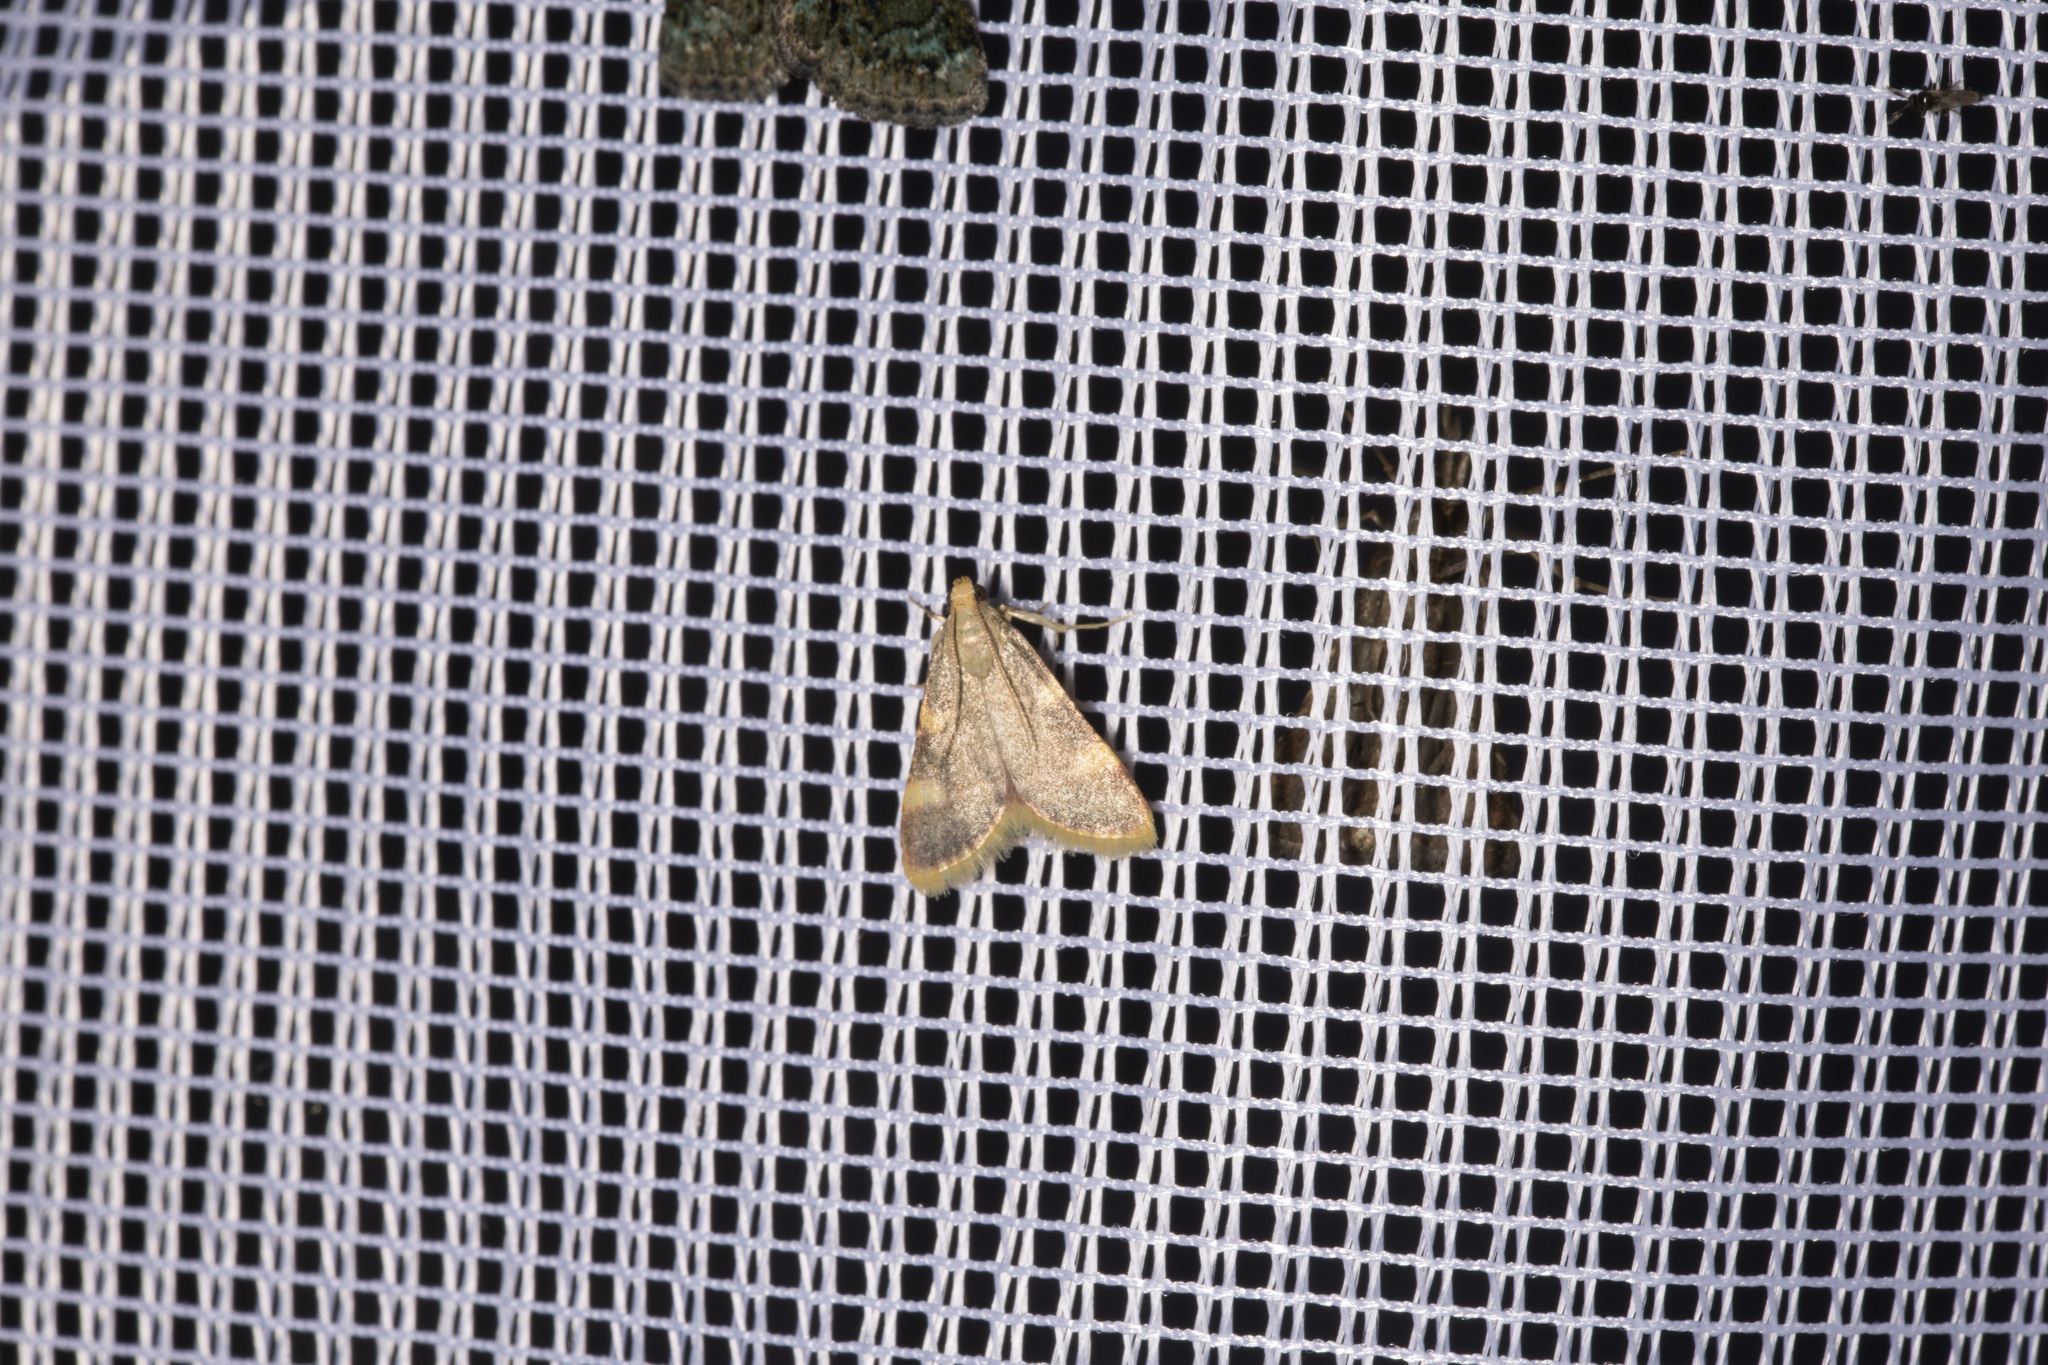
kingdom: Animalia
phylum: Arthropoda
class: Insecta
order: Lepidoptera
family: Pyralidae
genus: Hypsopygia
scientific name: Hypsopygia costalis
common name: Gold triangle
